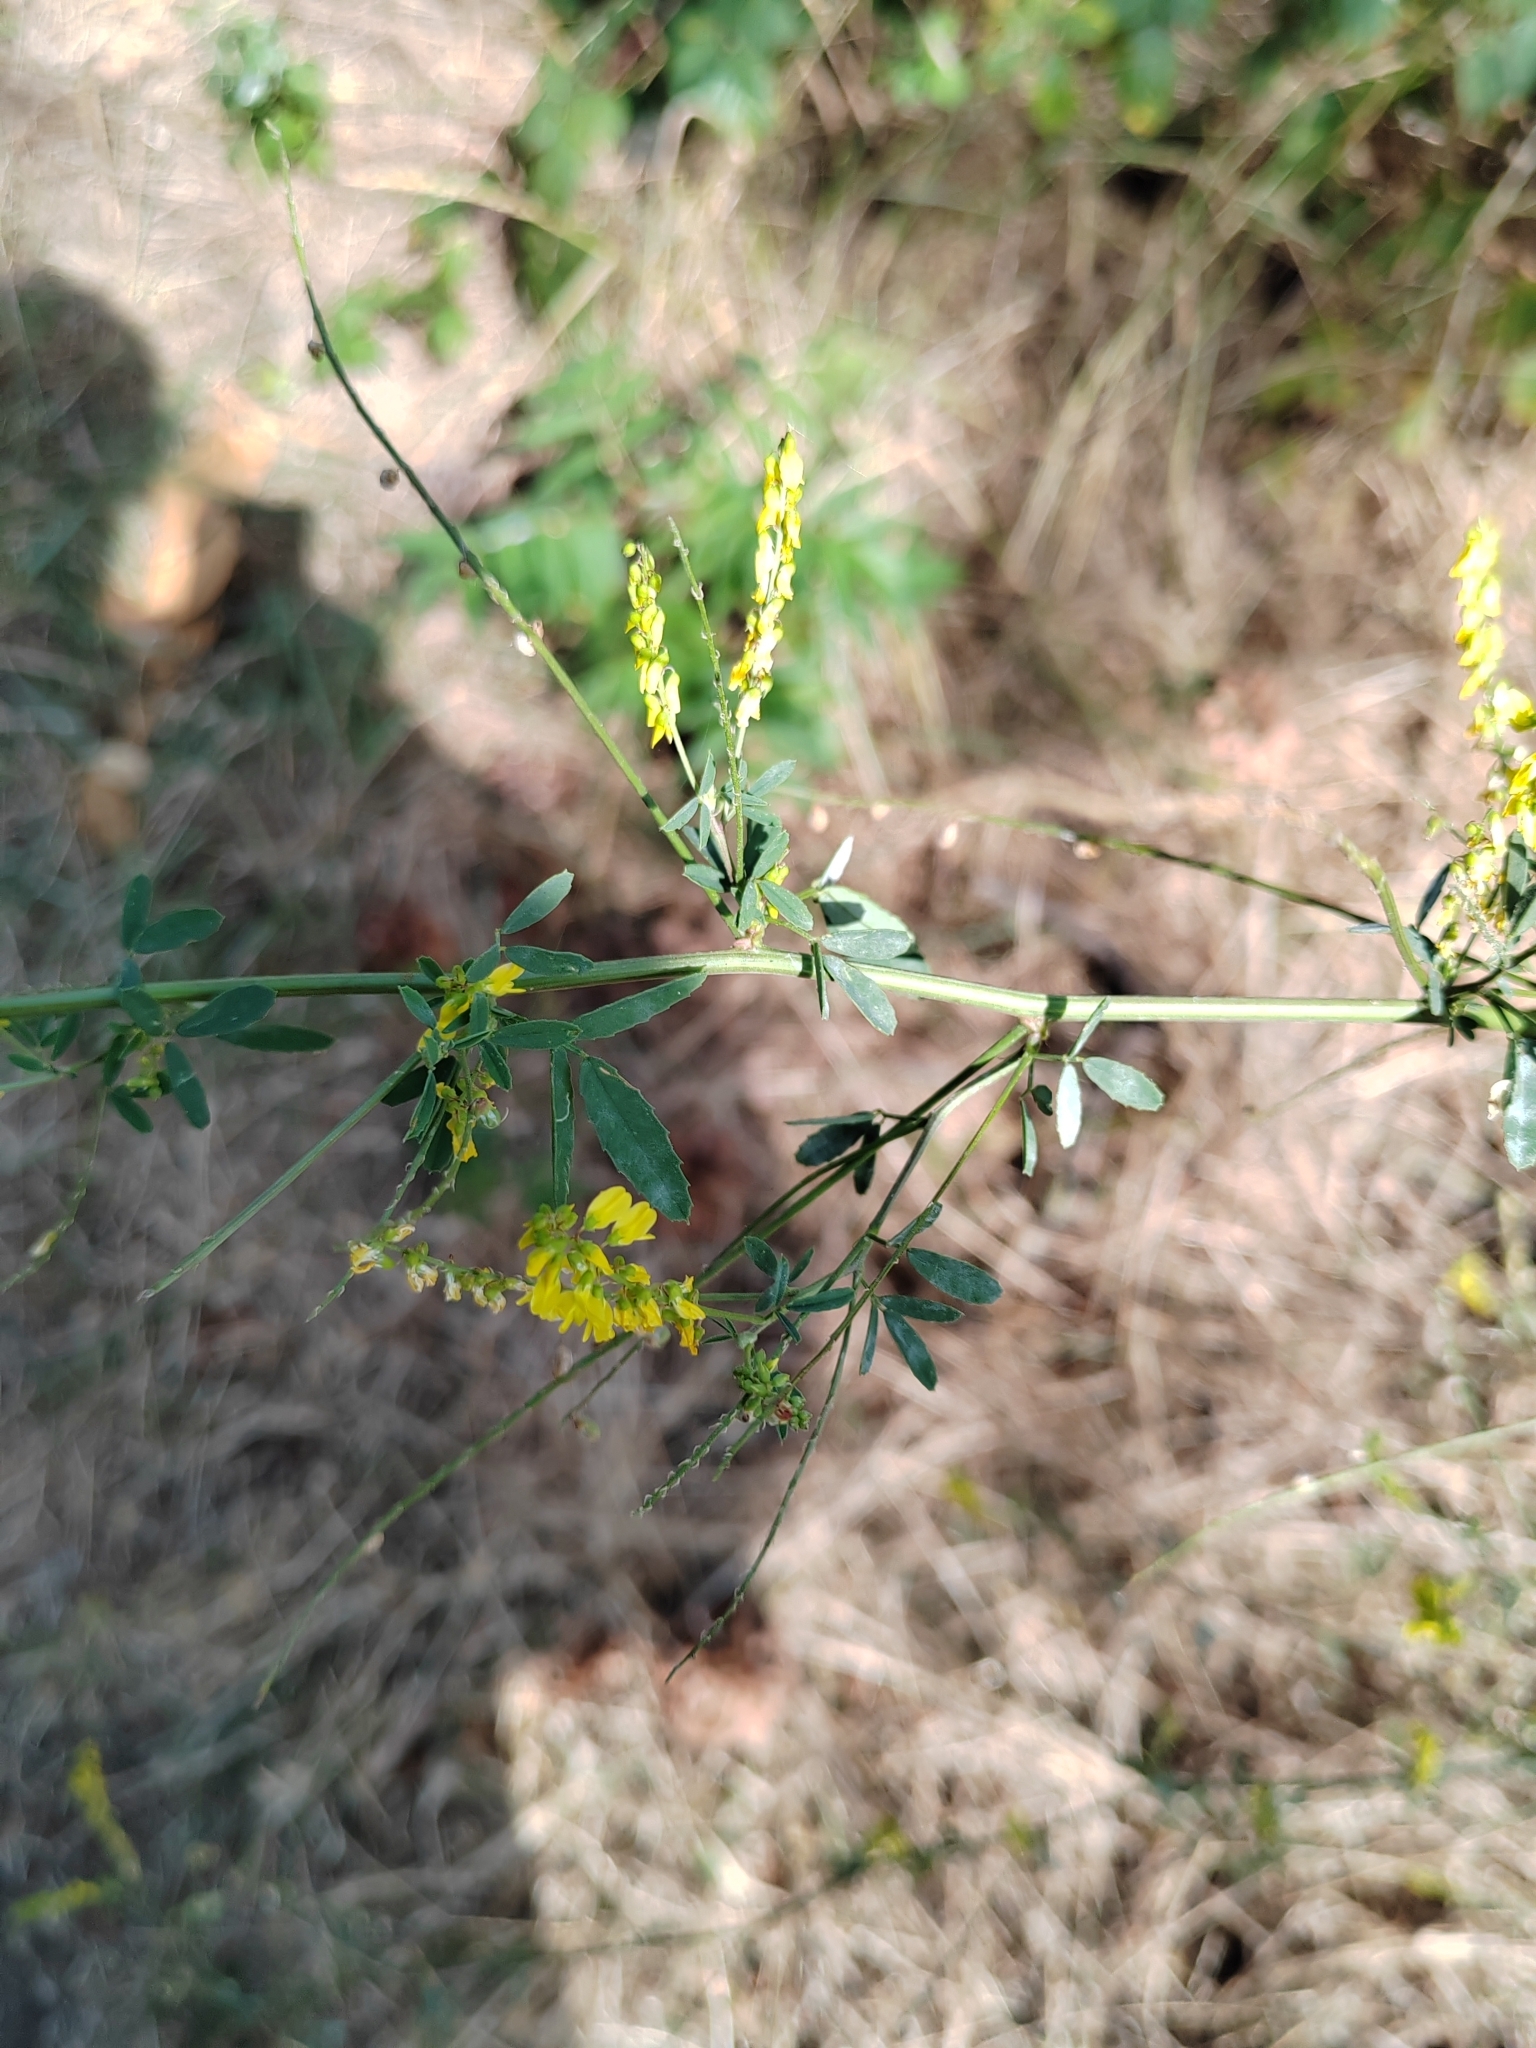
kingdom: Plantae
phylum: Tracheophyta
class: Magnoliopsida
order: Fabales
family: Fabaceae
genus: Melilotus
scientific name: Melilotus officinalis
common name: Sweetclover
